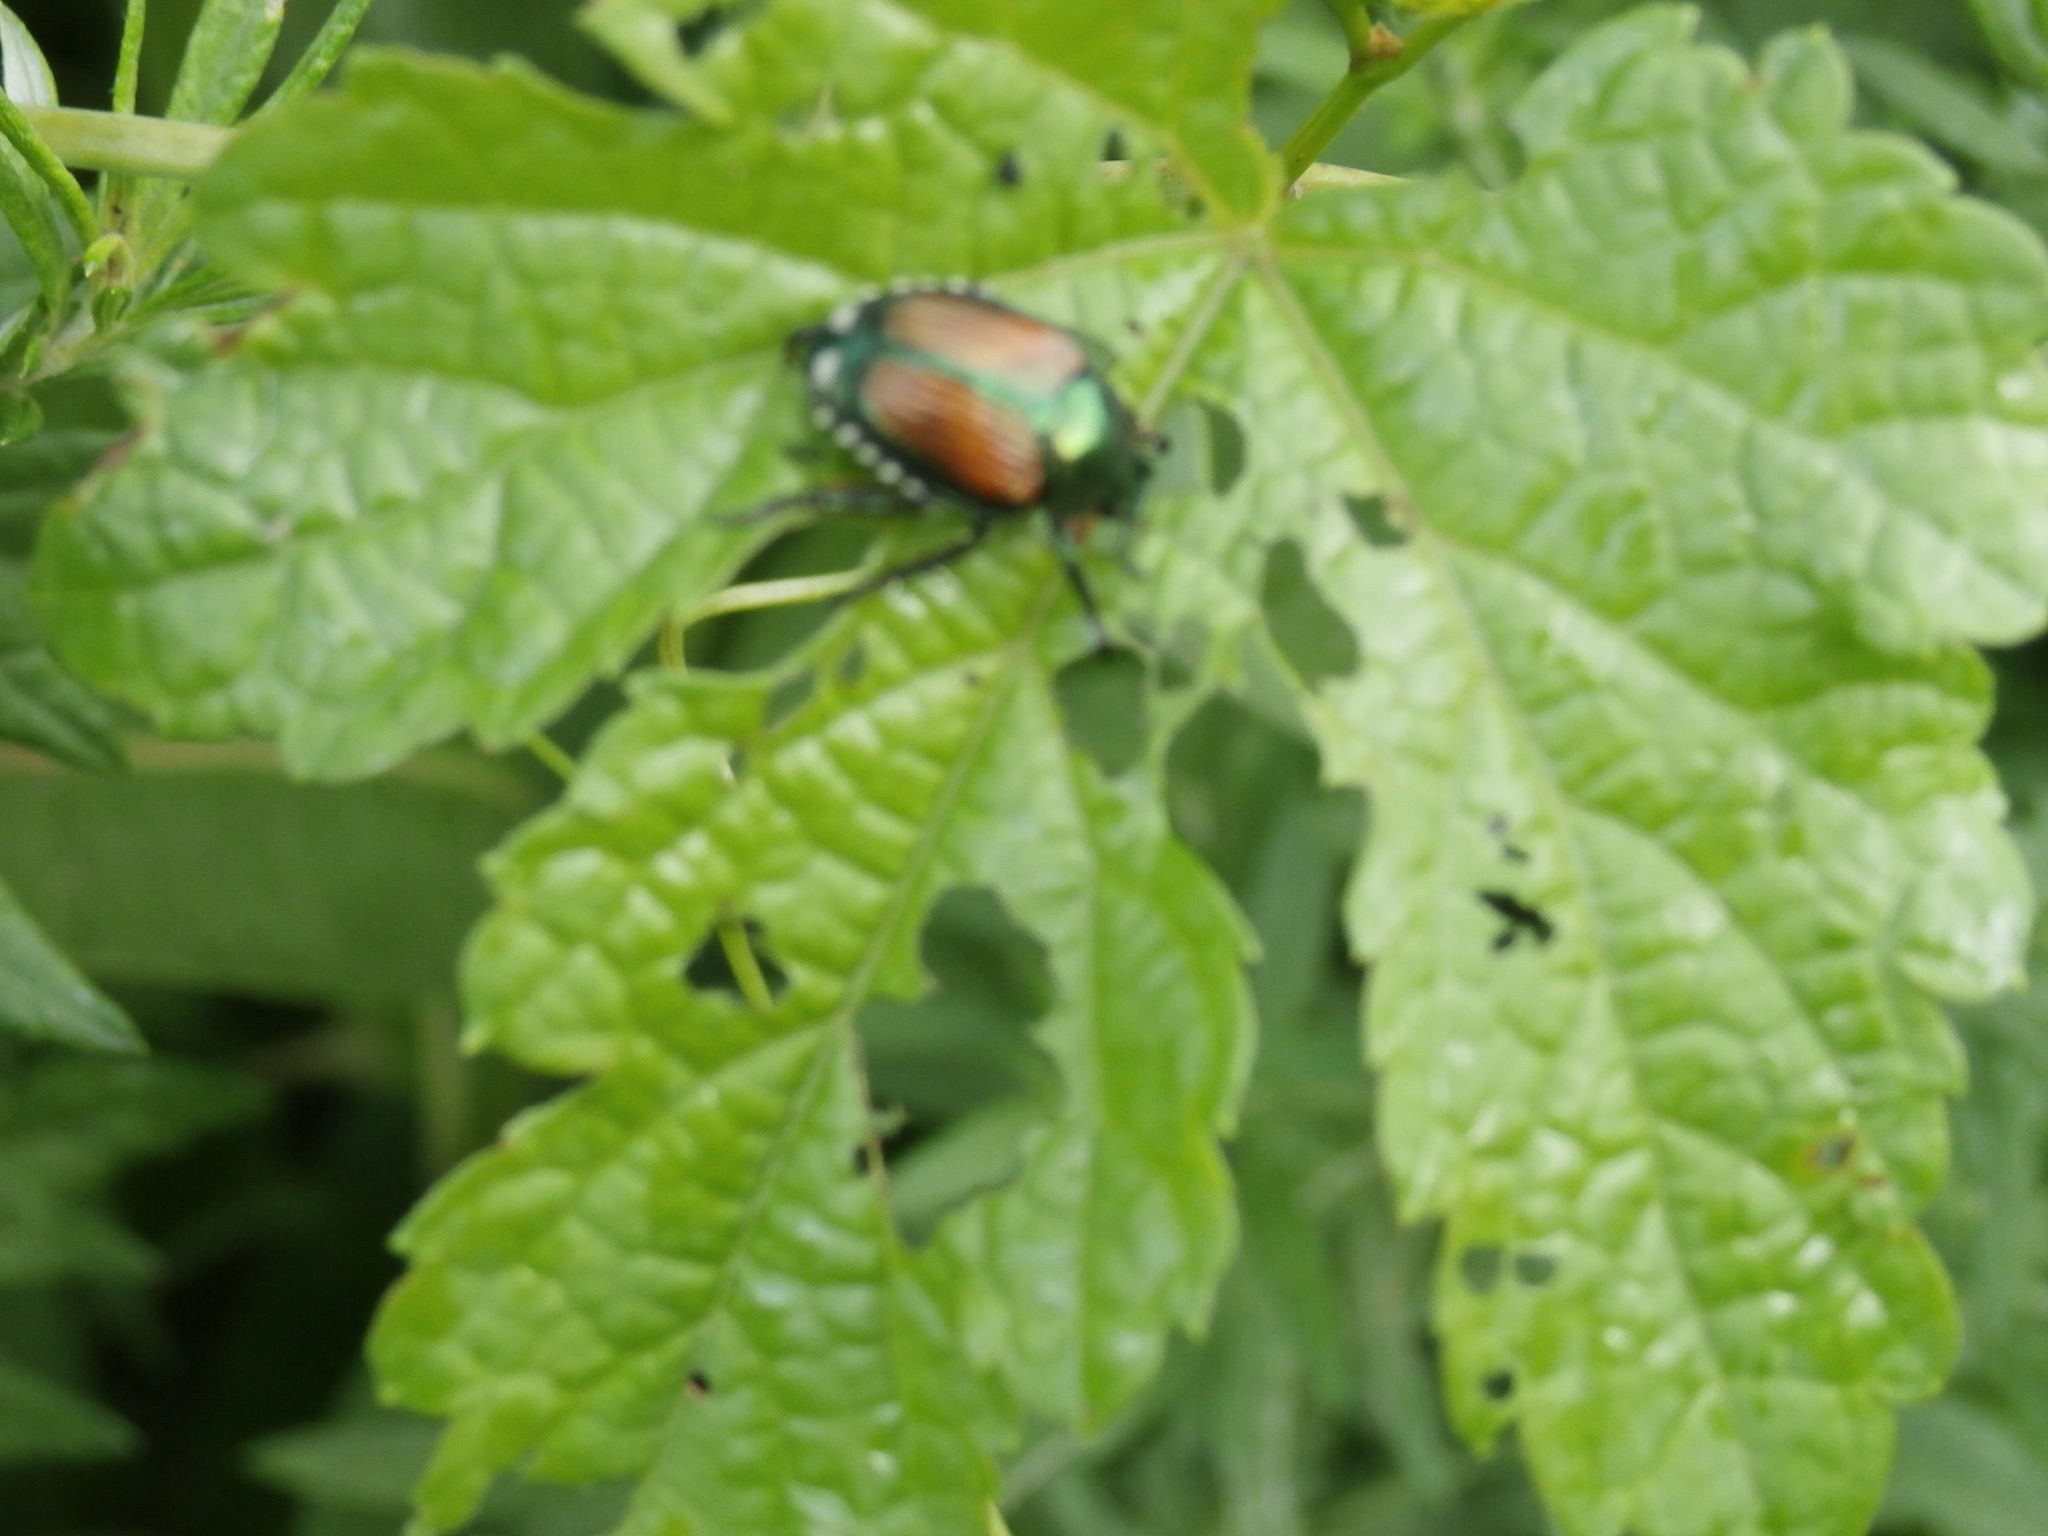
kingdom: Animalia
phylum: Arthropoda
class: Insecta
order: Coleoptera
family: Scarabaeidae
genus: Popillia
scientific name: Popillia japonica
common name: Japanese beetle
